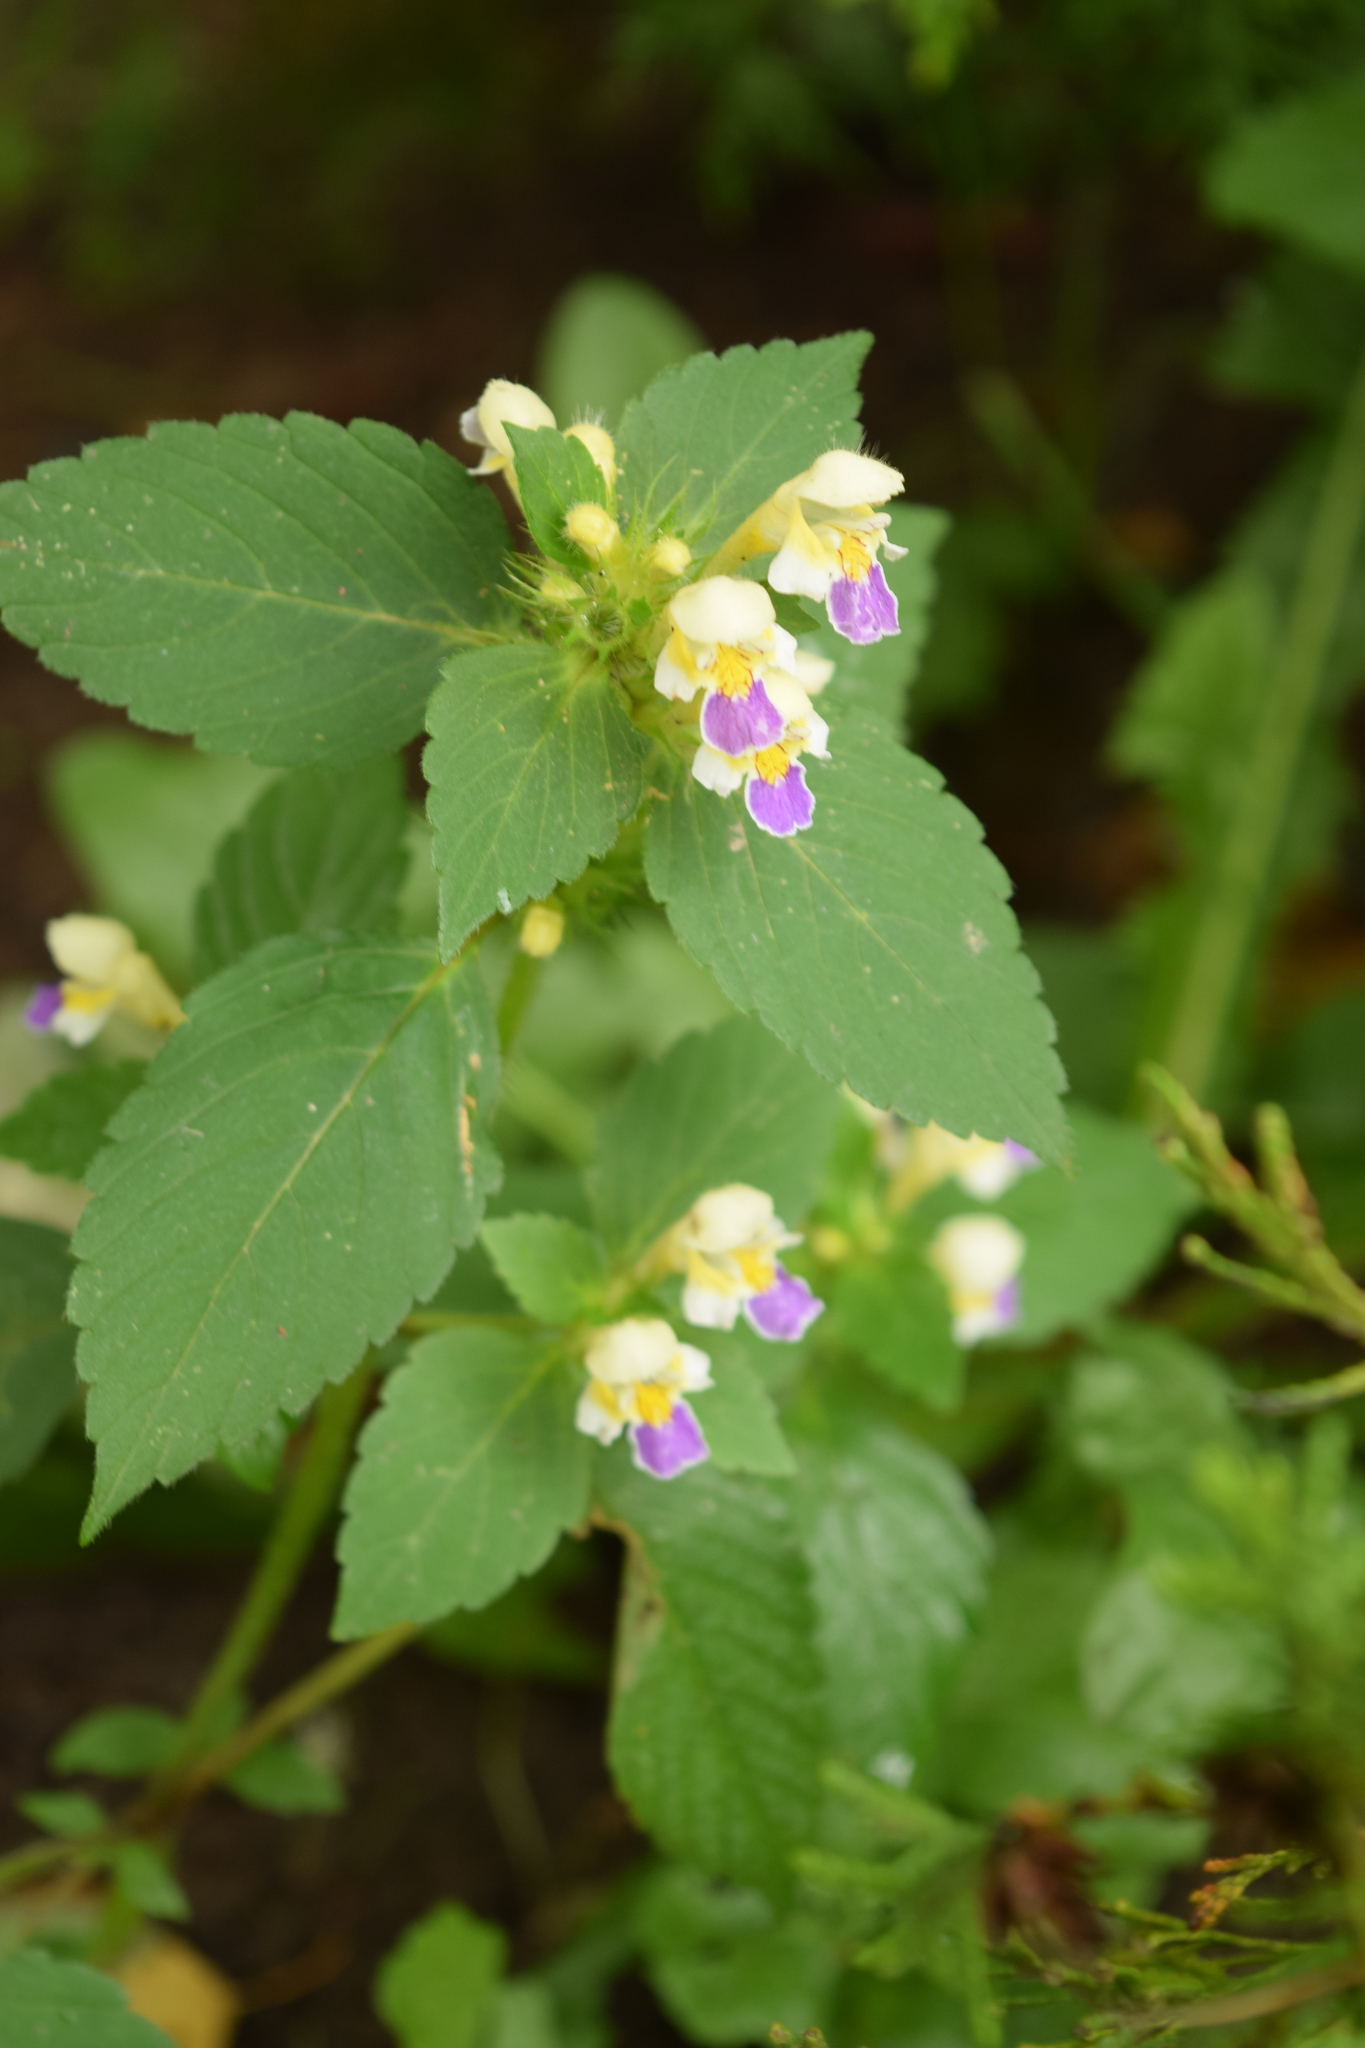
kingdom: Plantae
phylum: Tracheophyta
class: Magnoliopsida
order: Lamiales
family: Lamiaceae
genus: Galeopsis
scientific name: Galeopsis speciosa
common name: Large-flowered hemp-nettle
